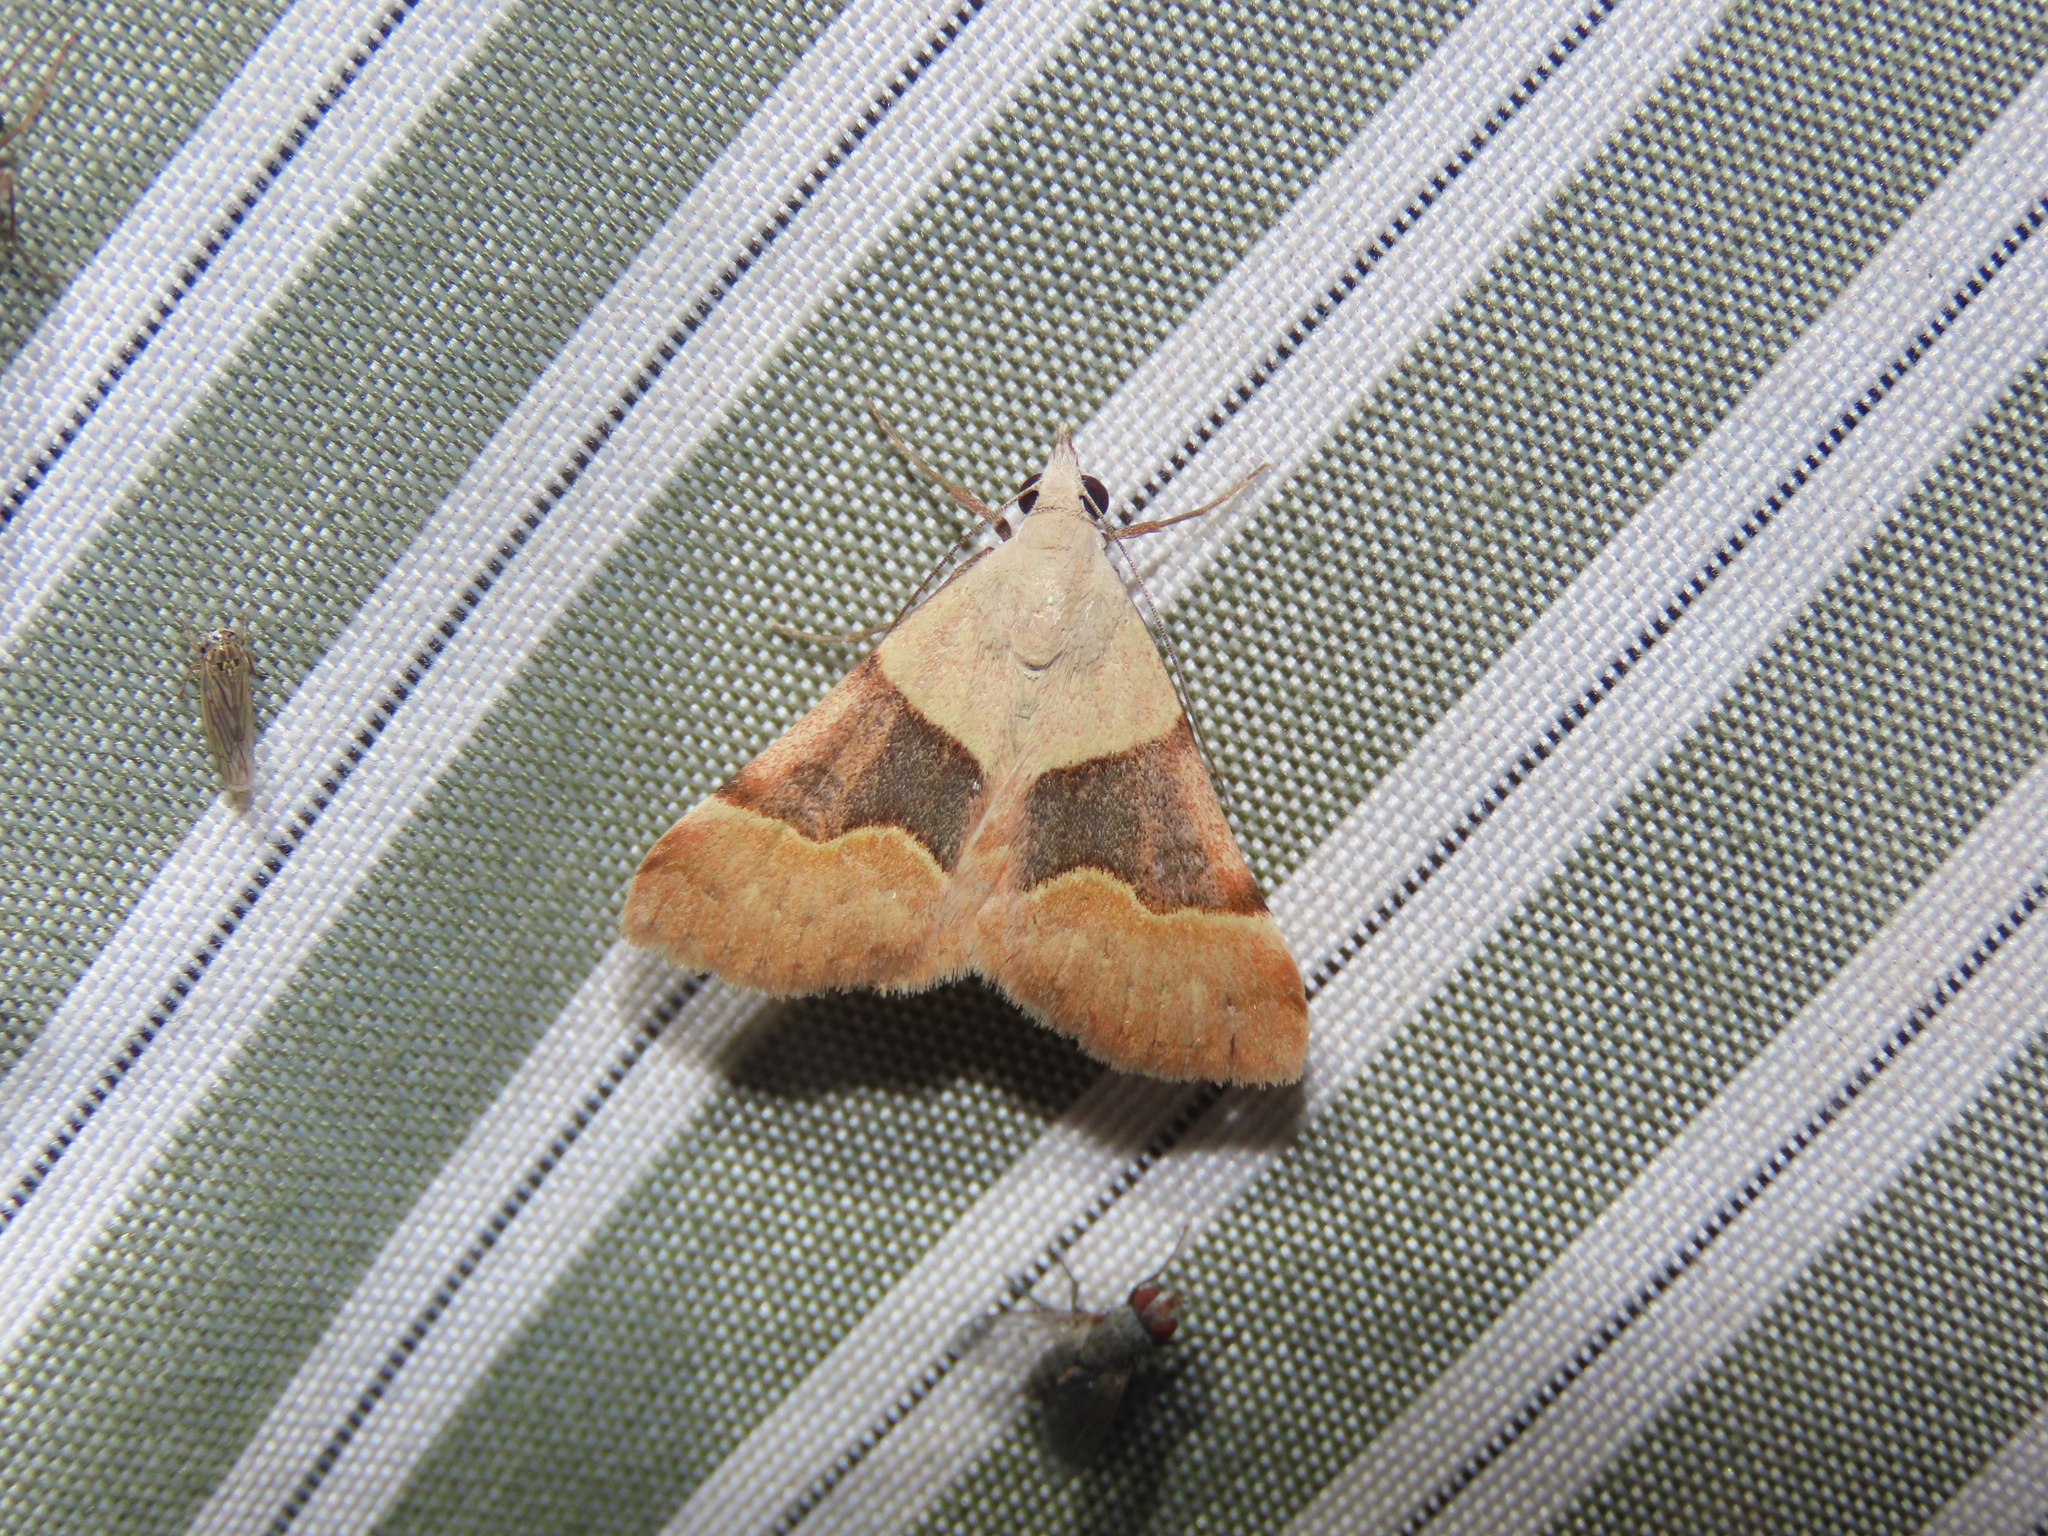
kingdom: Animalia
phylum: Arthropoda
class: Insecta
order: Lepidoptera
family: Erebidae
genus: Hemeroplanis
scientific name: Hemeroplanis incusalis
